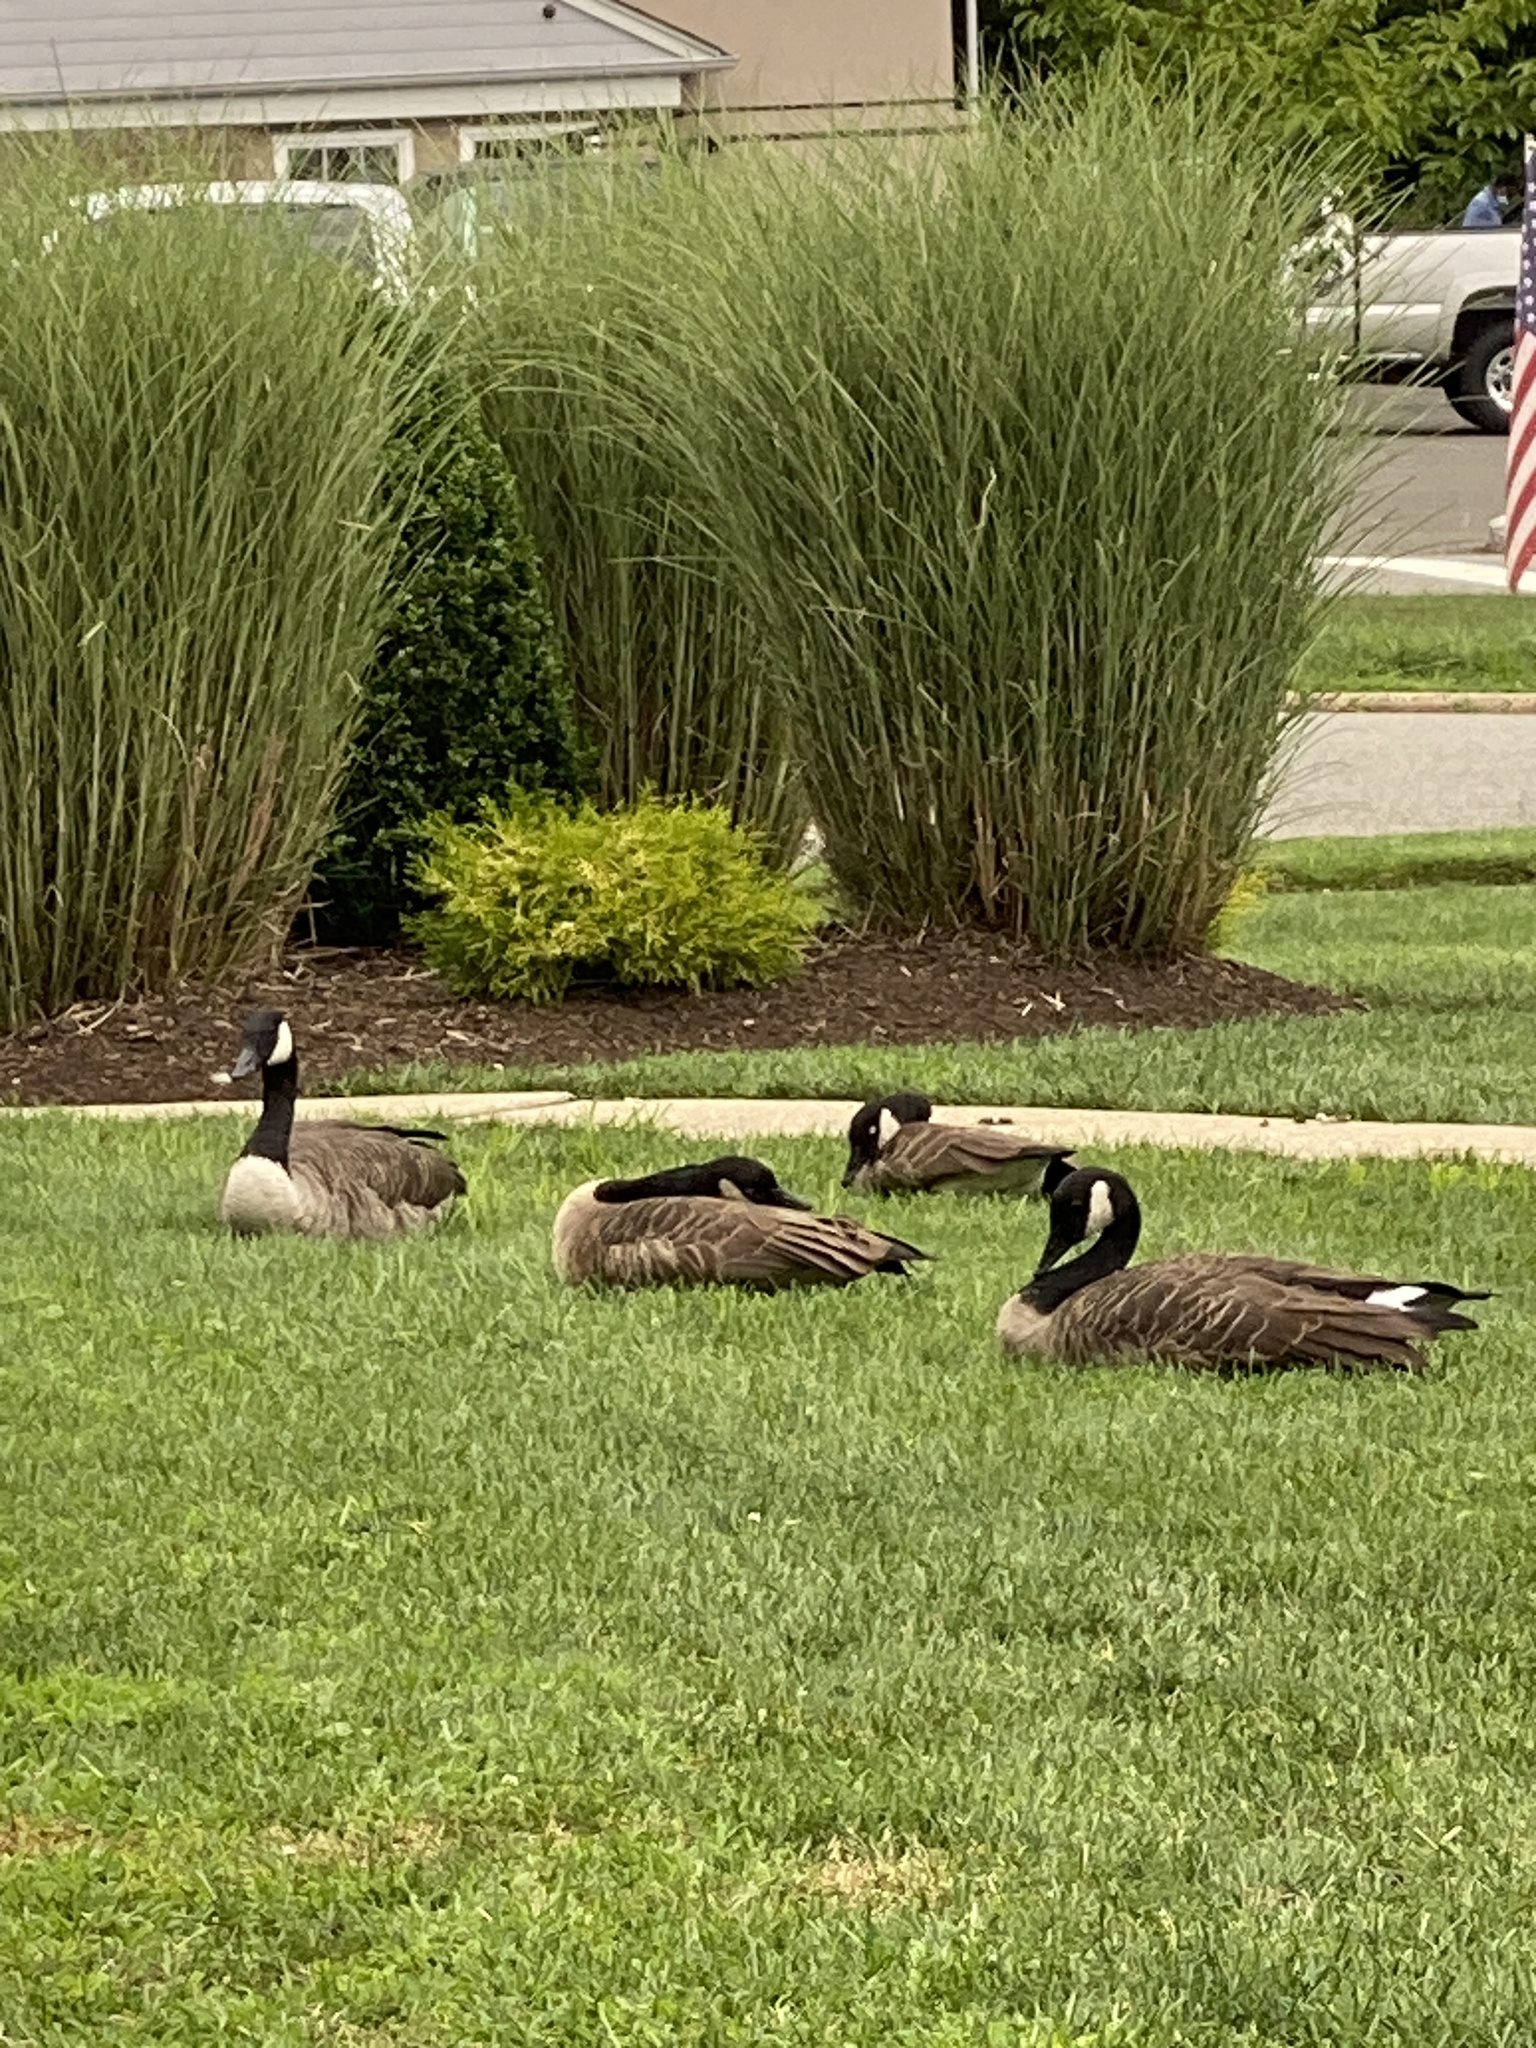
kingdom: Animalia
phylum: Chordata
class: Aves
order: Anseriformes
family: Anatidae
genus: Branta
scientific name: Branta canadensis
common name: Canada goose
